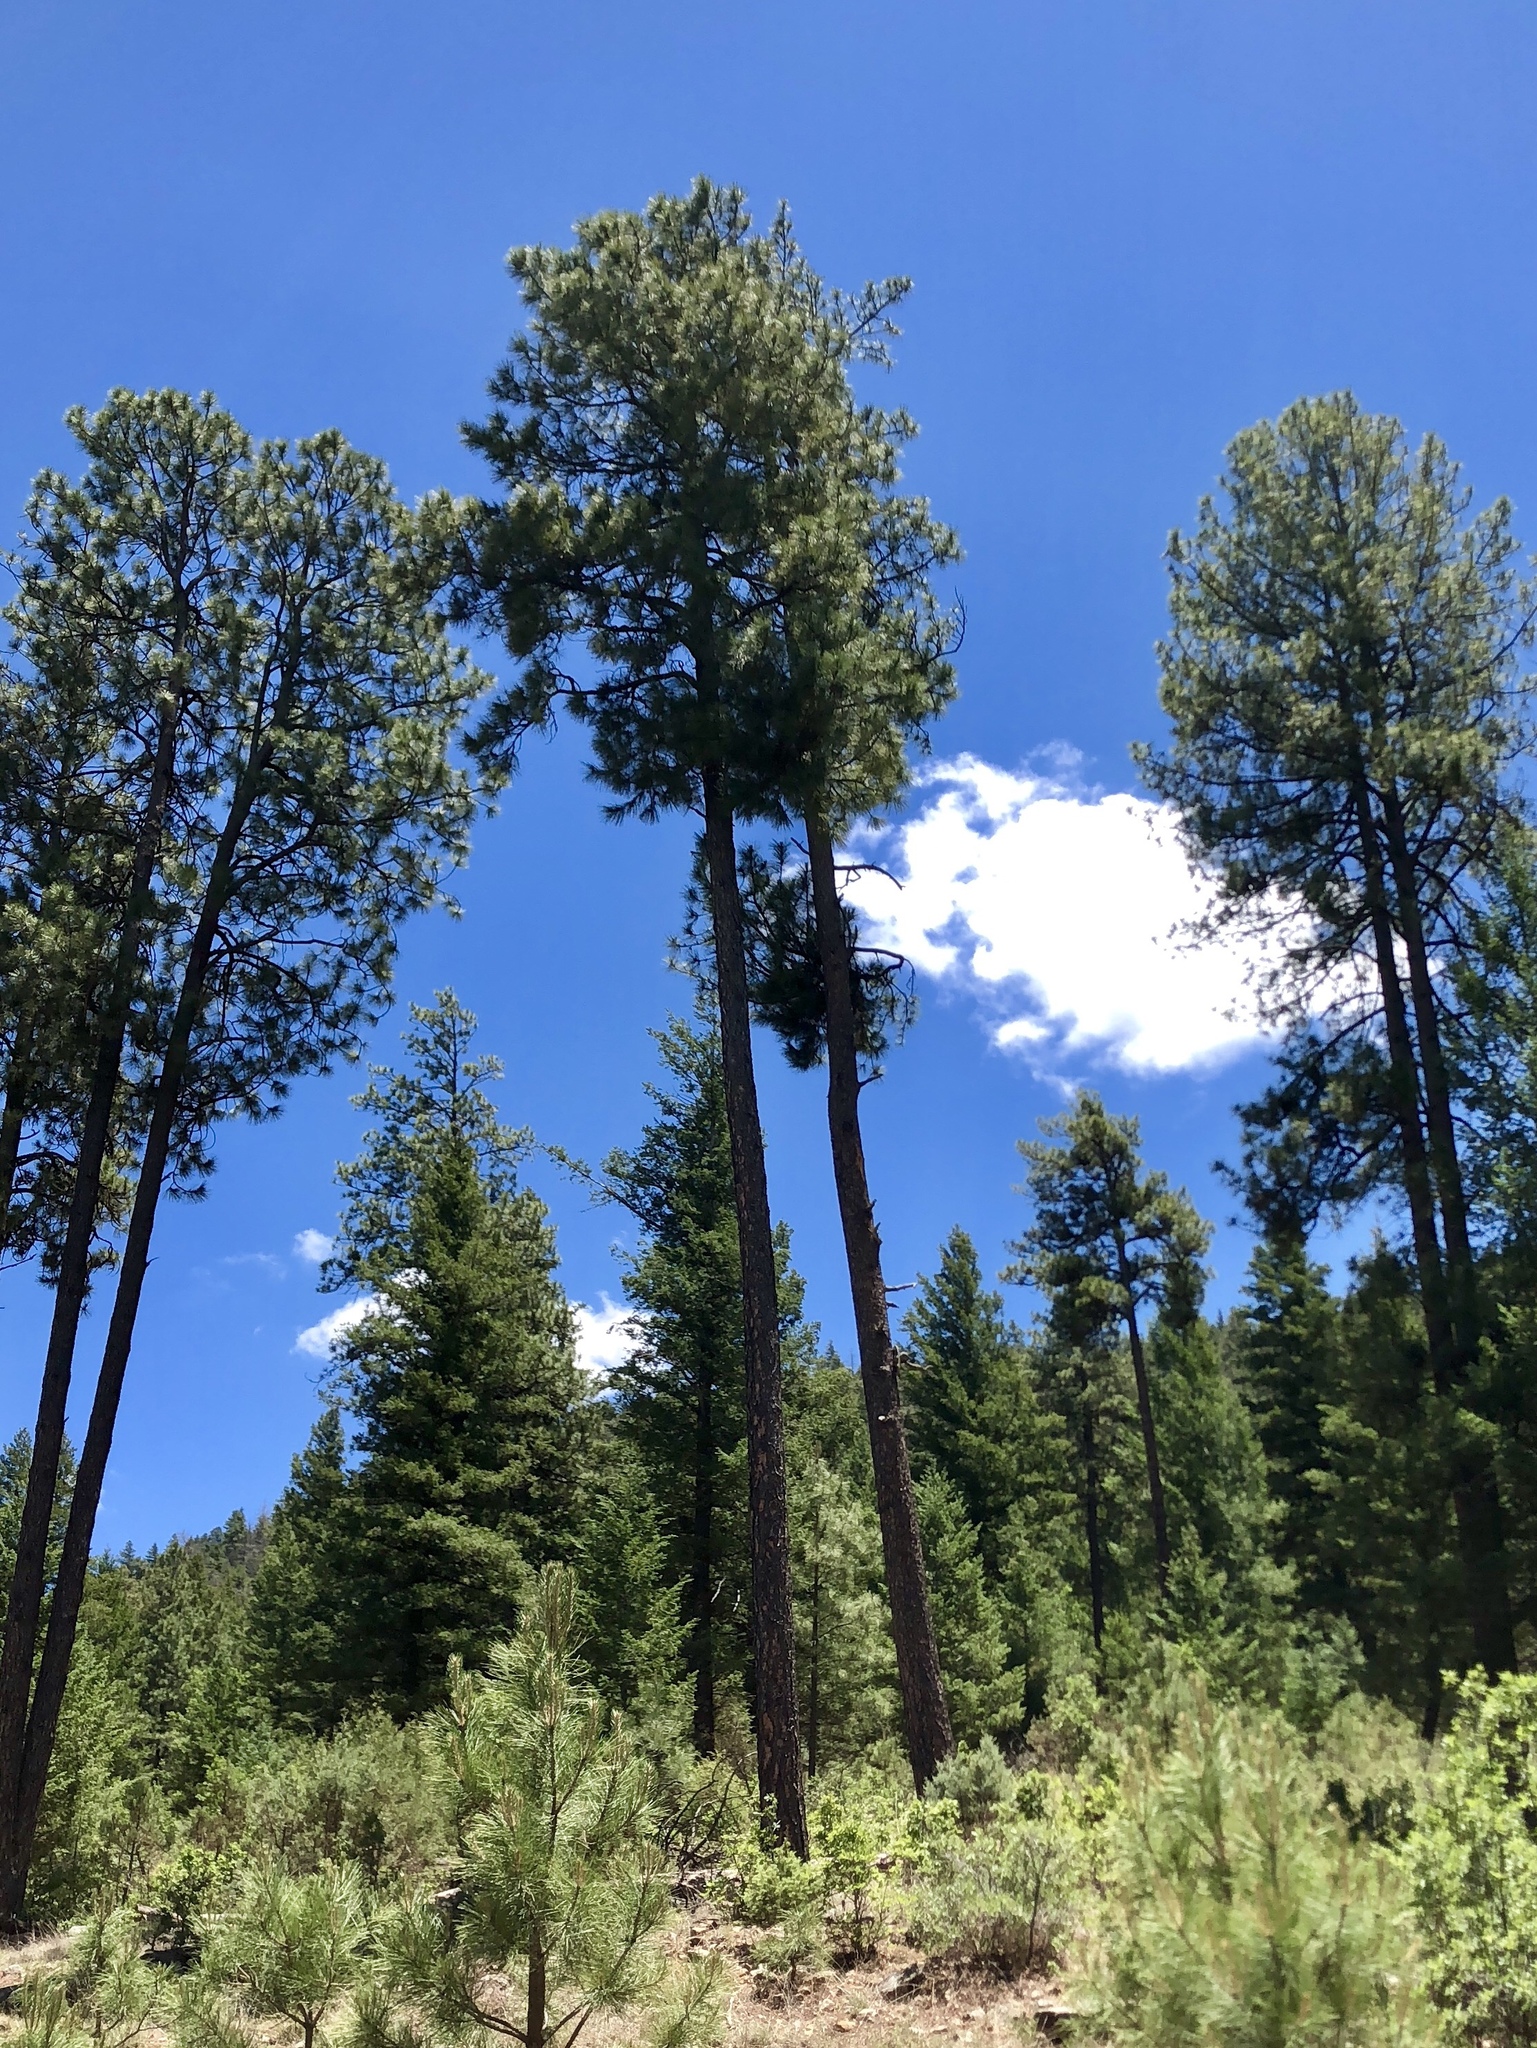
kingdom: Plantae
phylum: Tracheophyta
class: Pinopsida
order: Pinales
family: Pinaceae
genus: Pinus
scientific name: Pinus ponderosa
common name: Western yellow-pine
